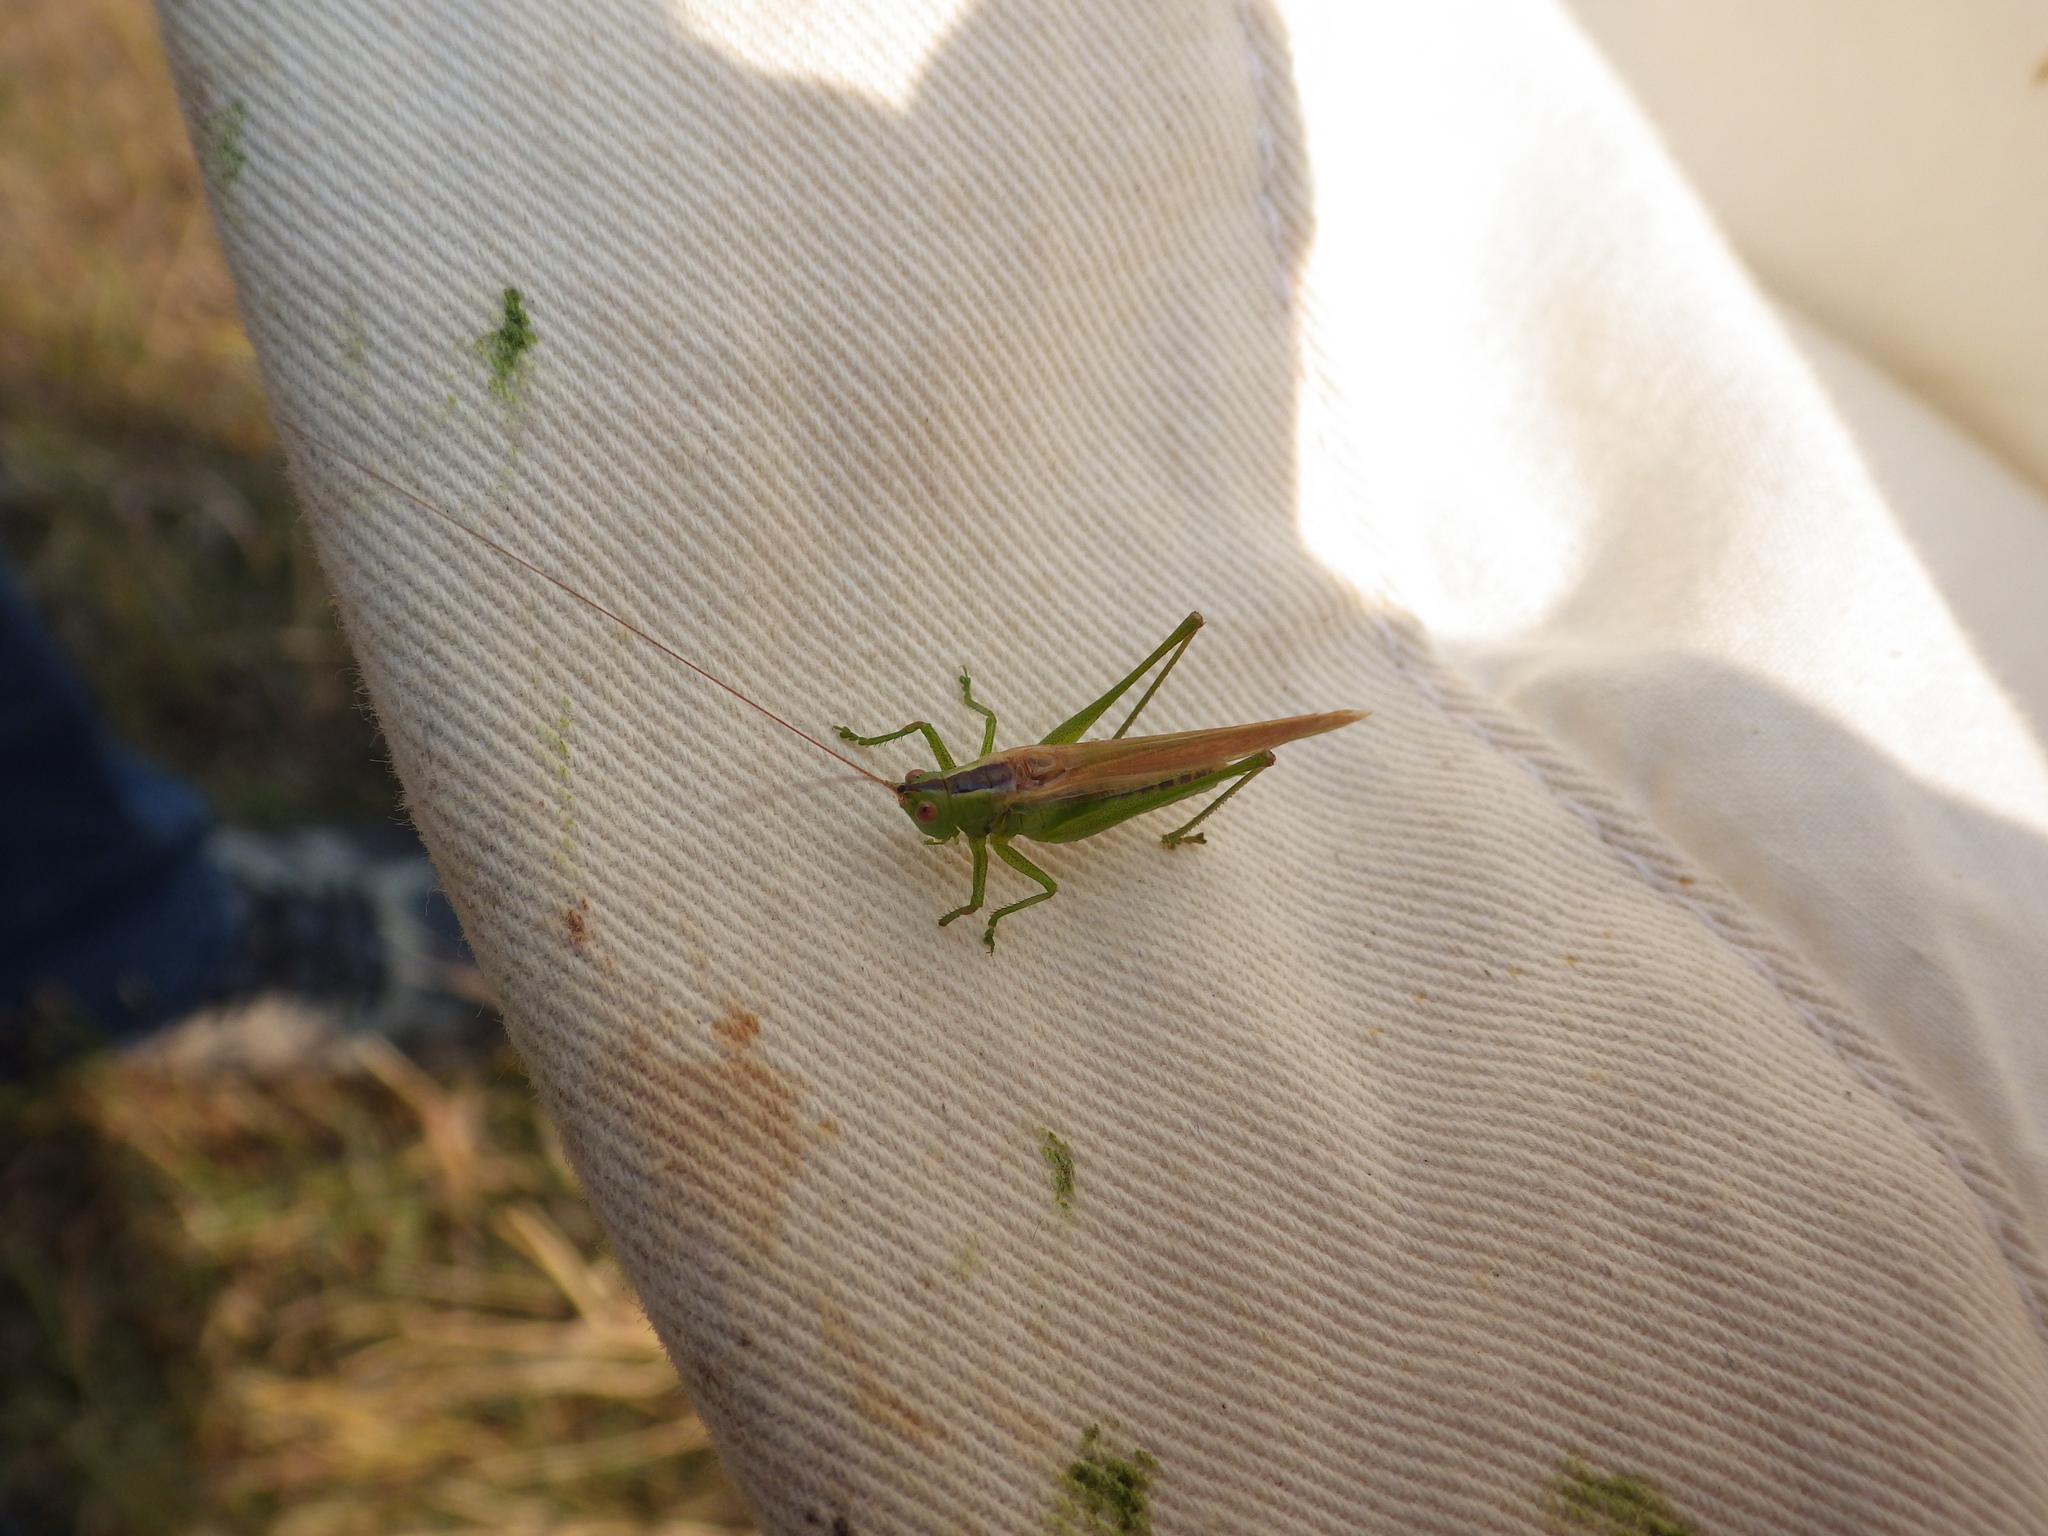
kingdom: Animalia
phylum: Arthropoda
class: Insecta
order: Orthoptera
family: Tettigoniidae
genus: Conocephalus
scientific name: Conocephalus fasciatus
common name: Slender meadow katydid
